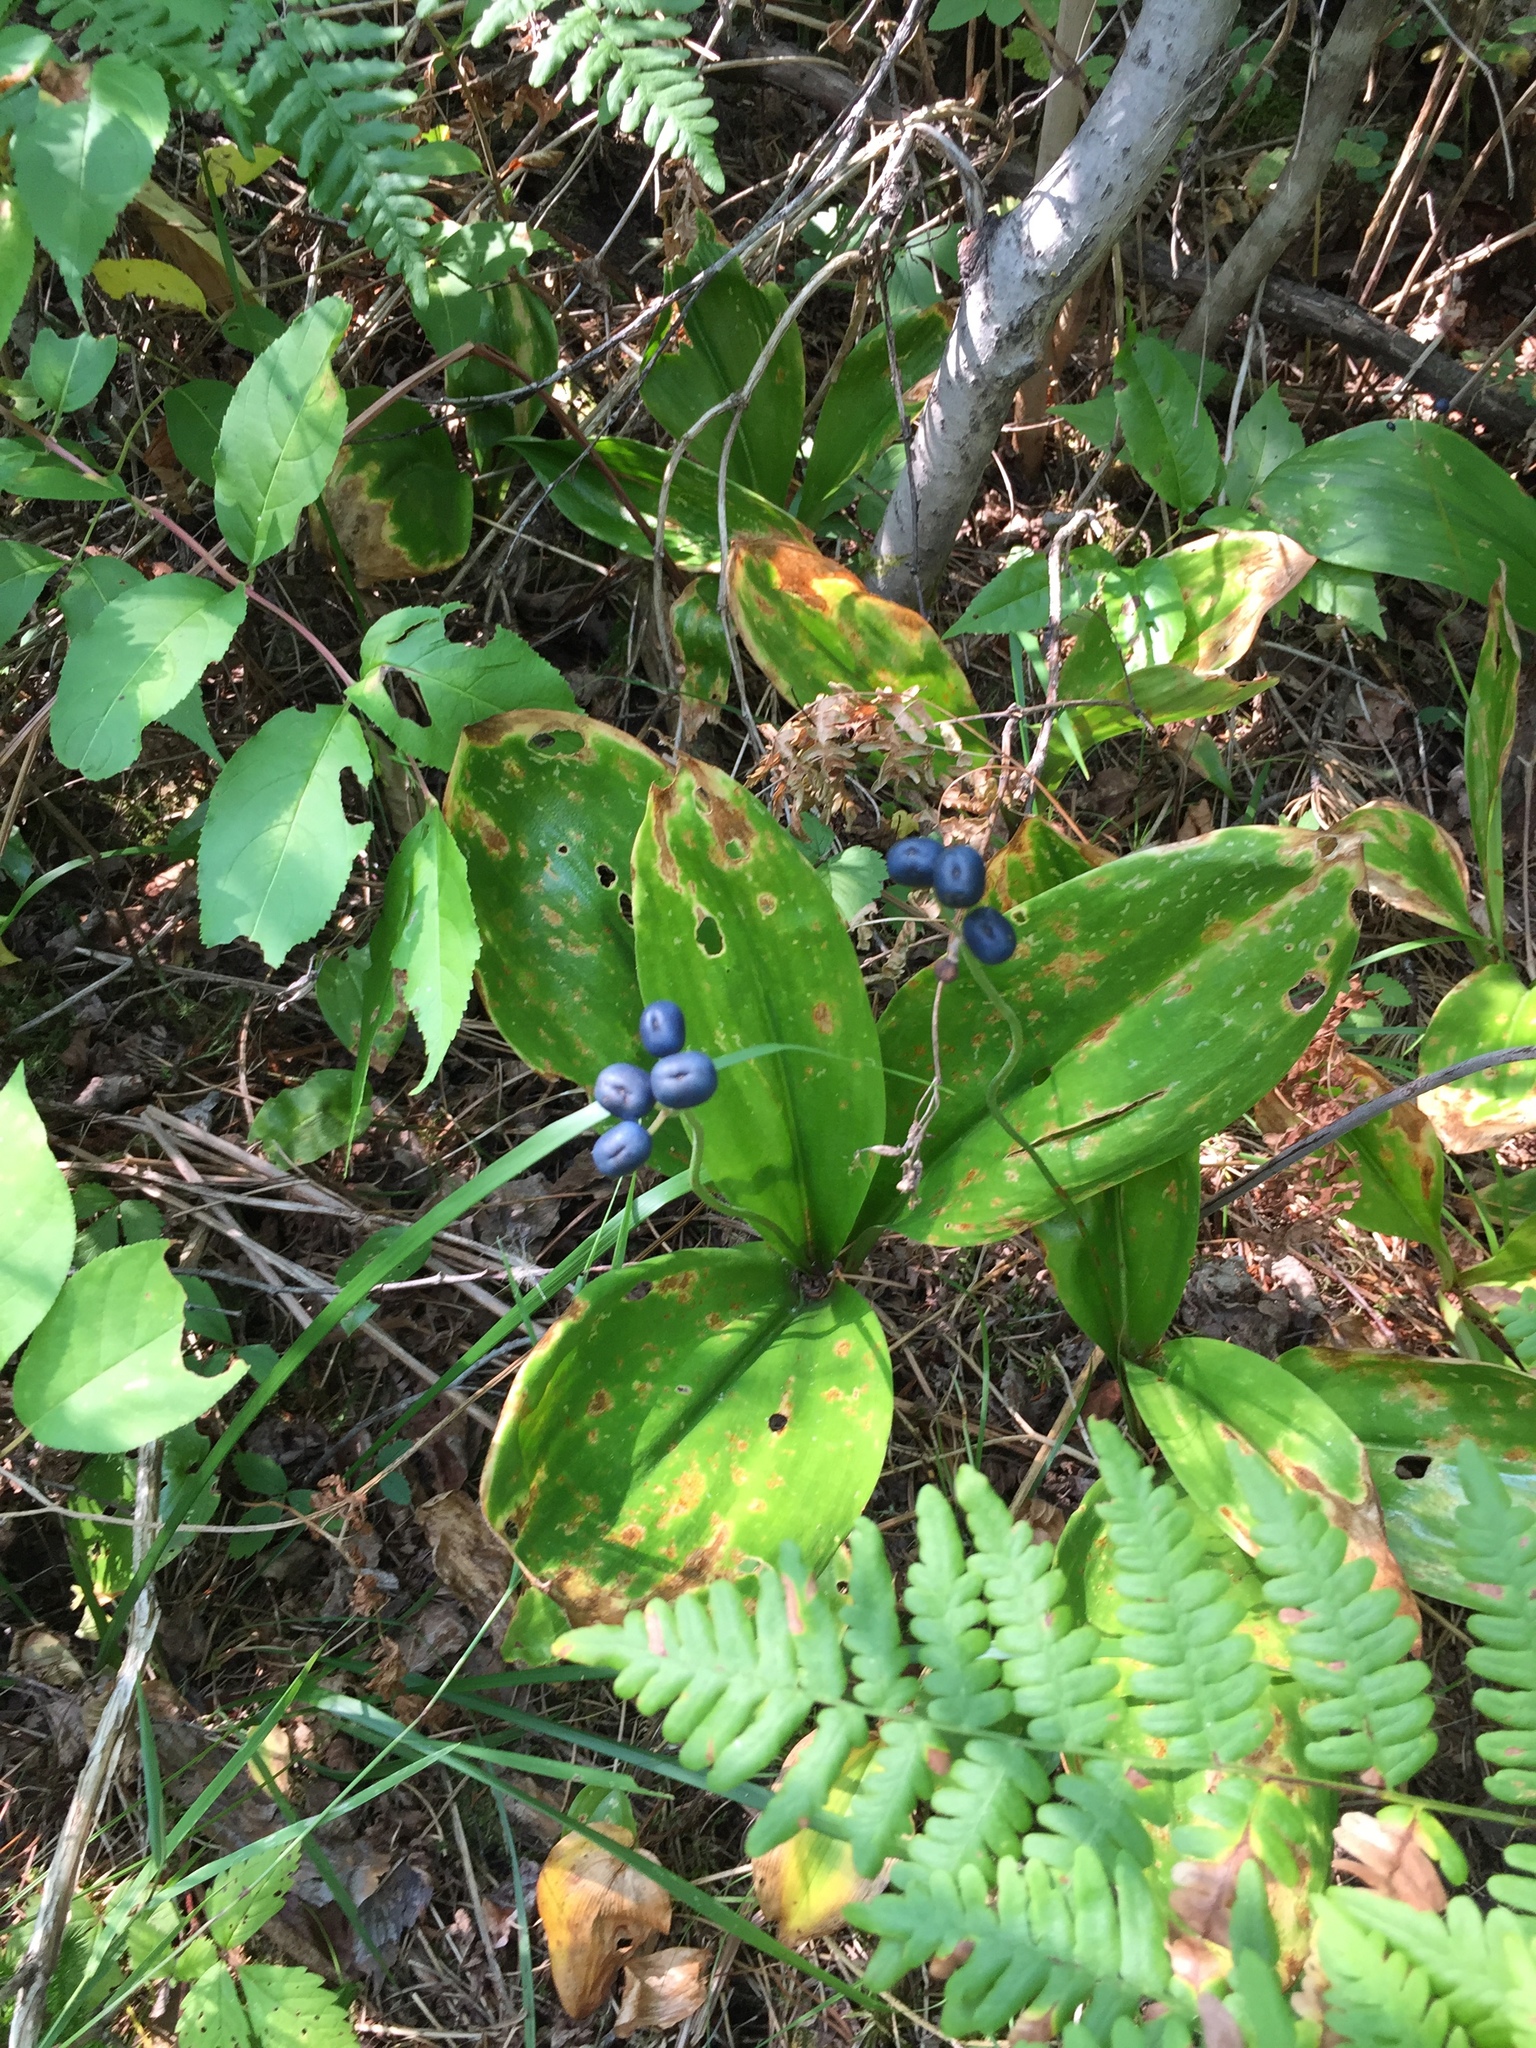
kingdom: Plantae
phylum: Tracheophyta
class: Liliopsida
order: Liliales
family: Liliaceae
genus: Clintonia
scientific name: Clintonia borealis
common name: Yellow clintonia
